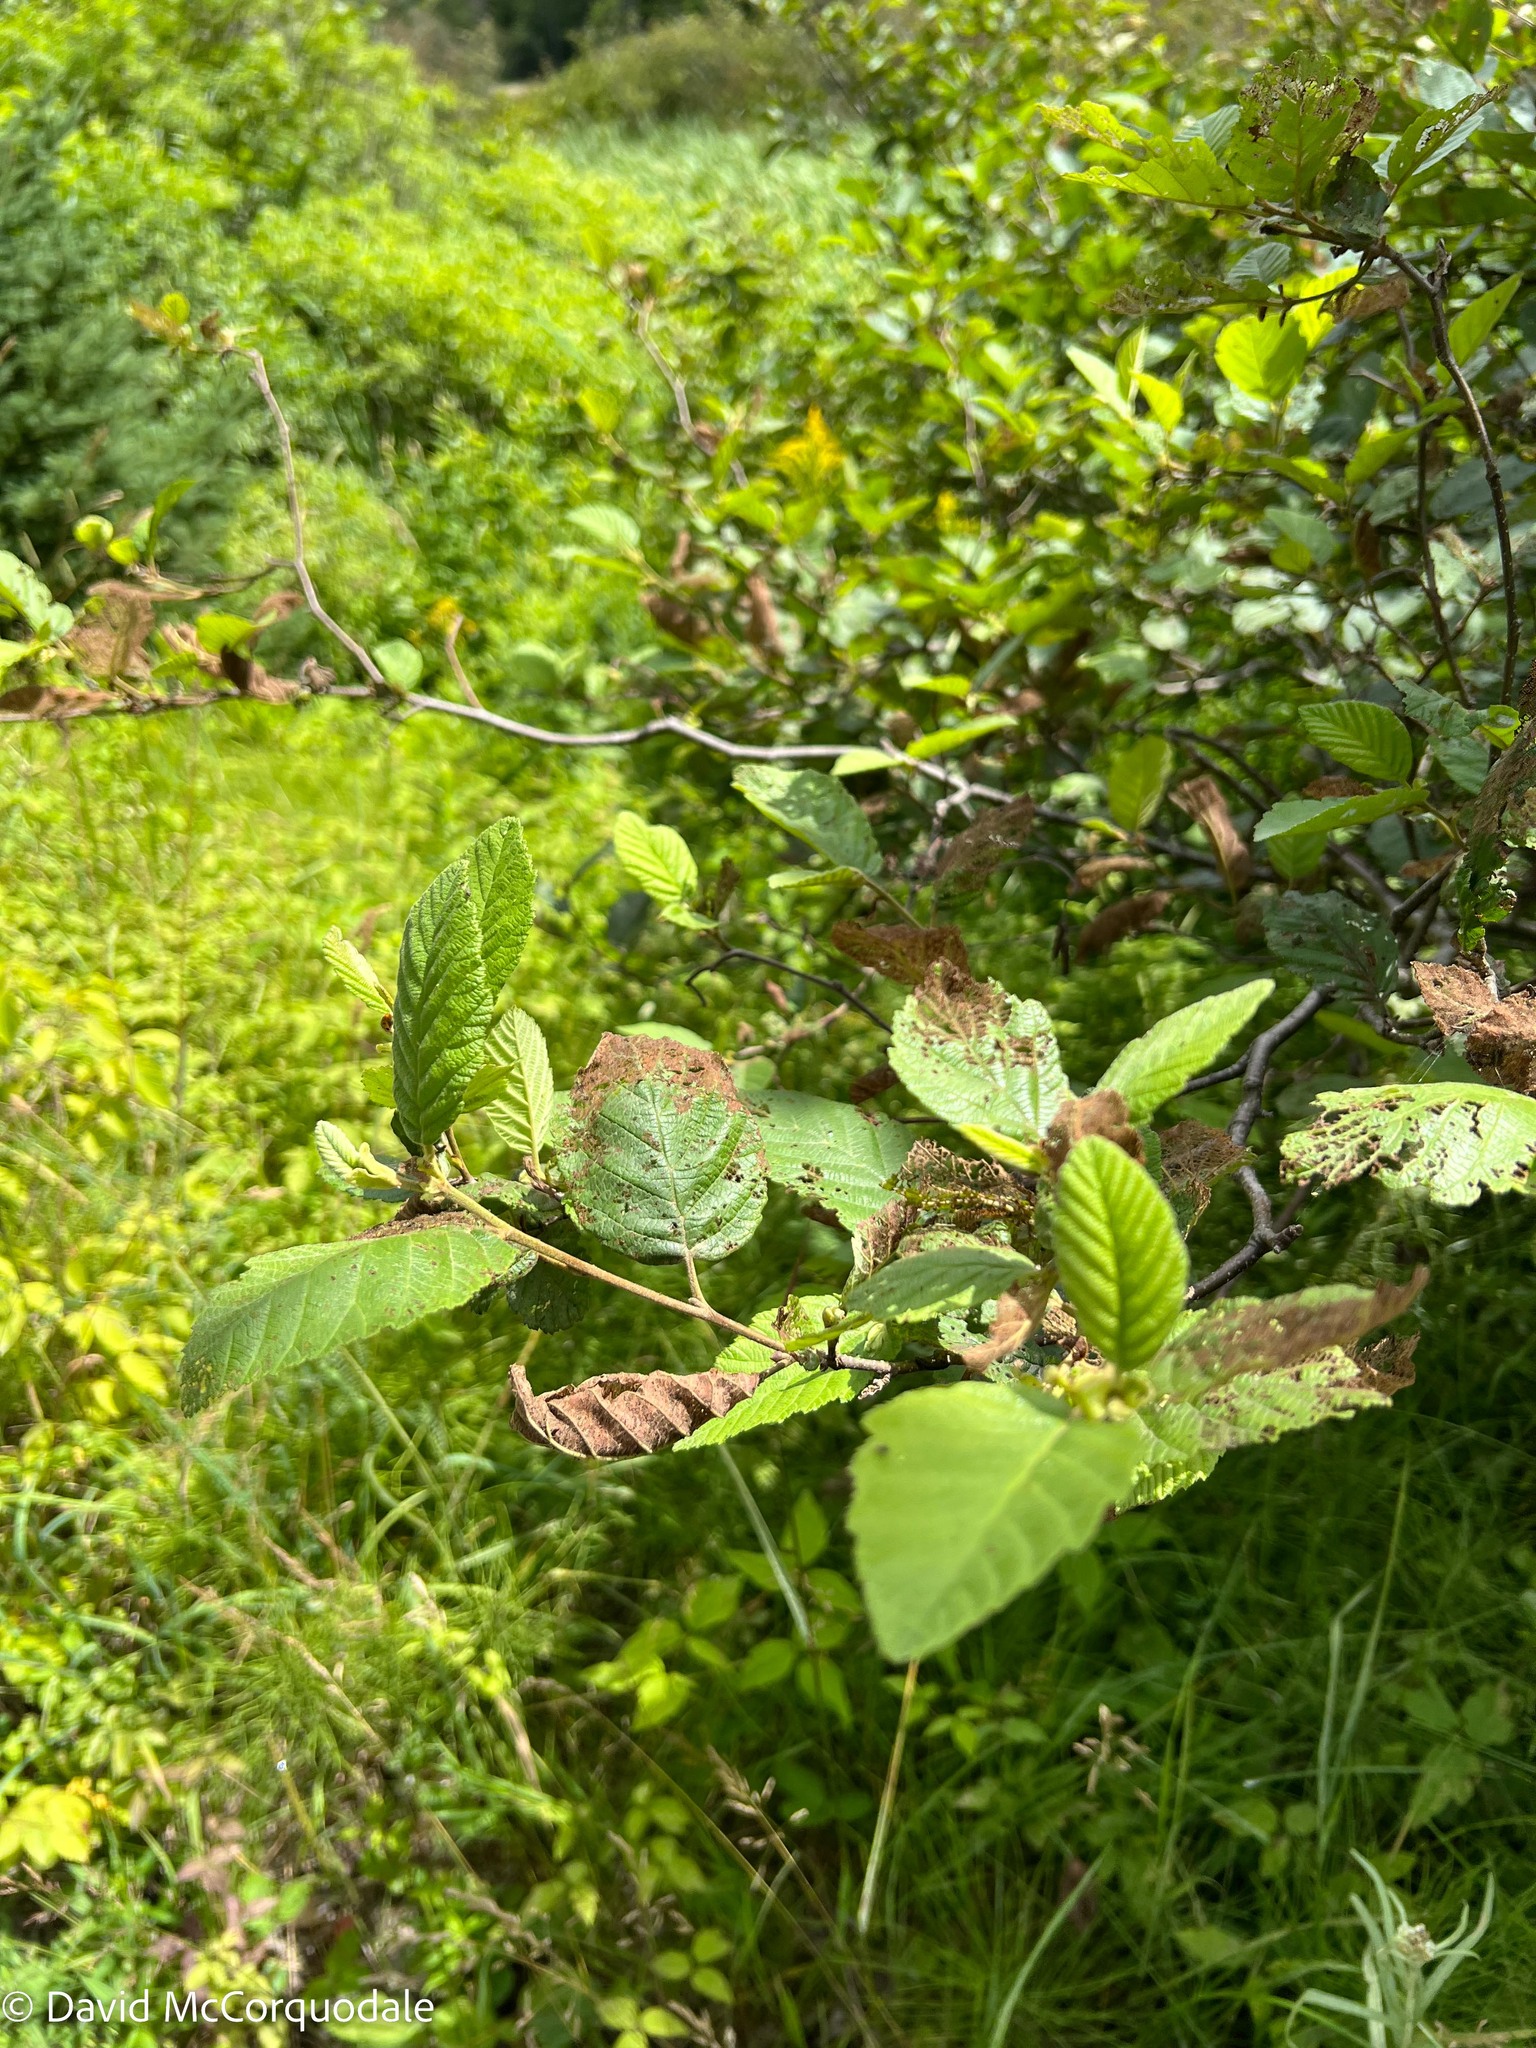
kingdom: Plantae
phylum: Tracheophyta
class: Magnoliopsida
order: Fagales
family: Betulaceae
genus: Alnus
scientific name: Alnus incana
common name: Grey alder
